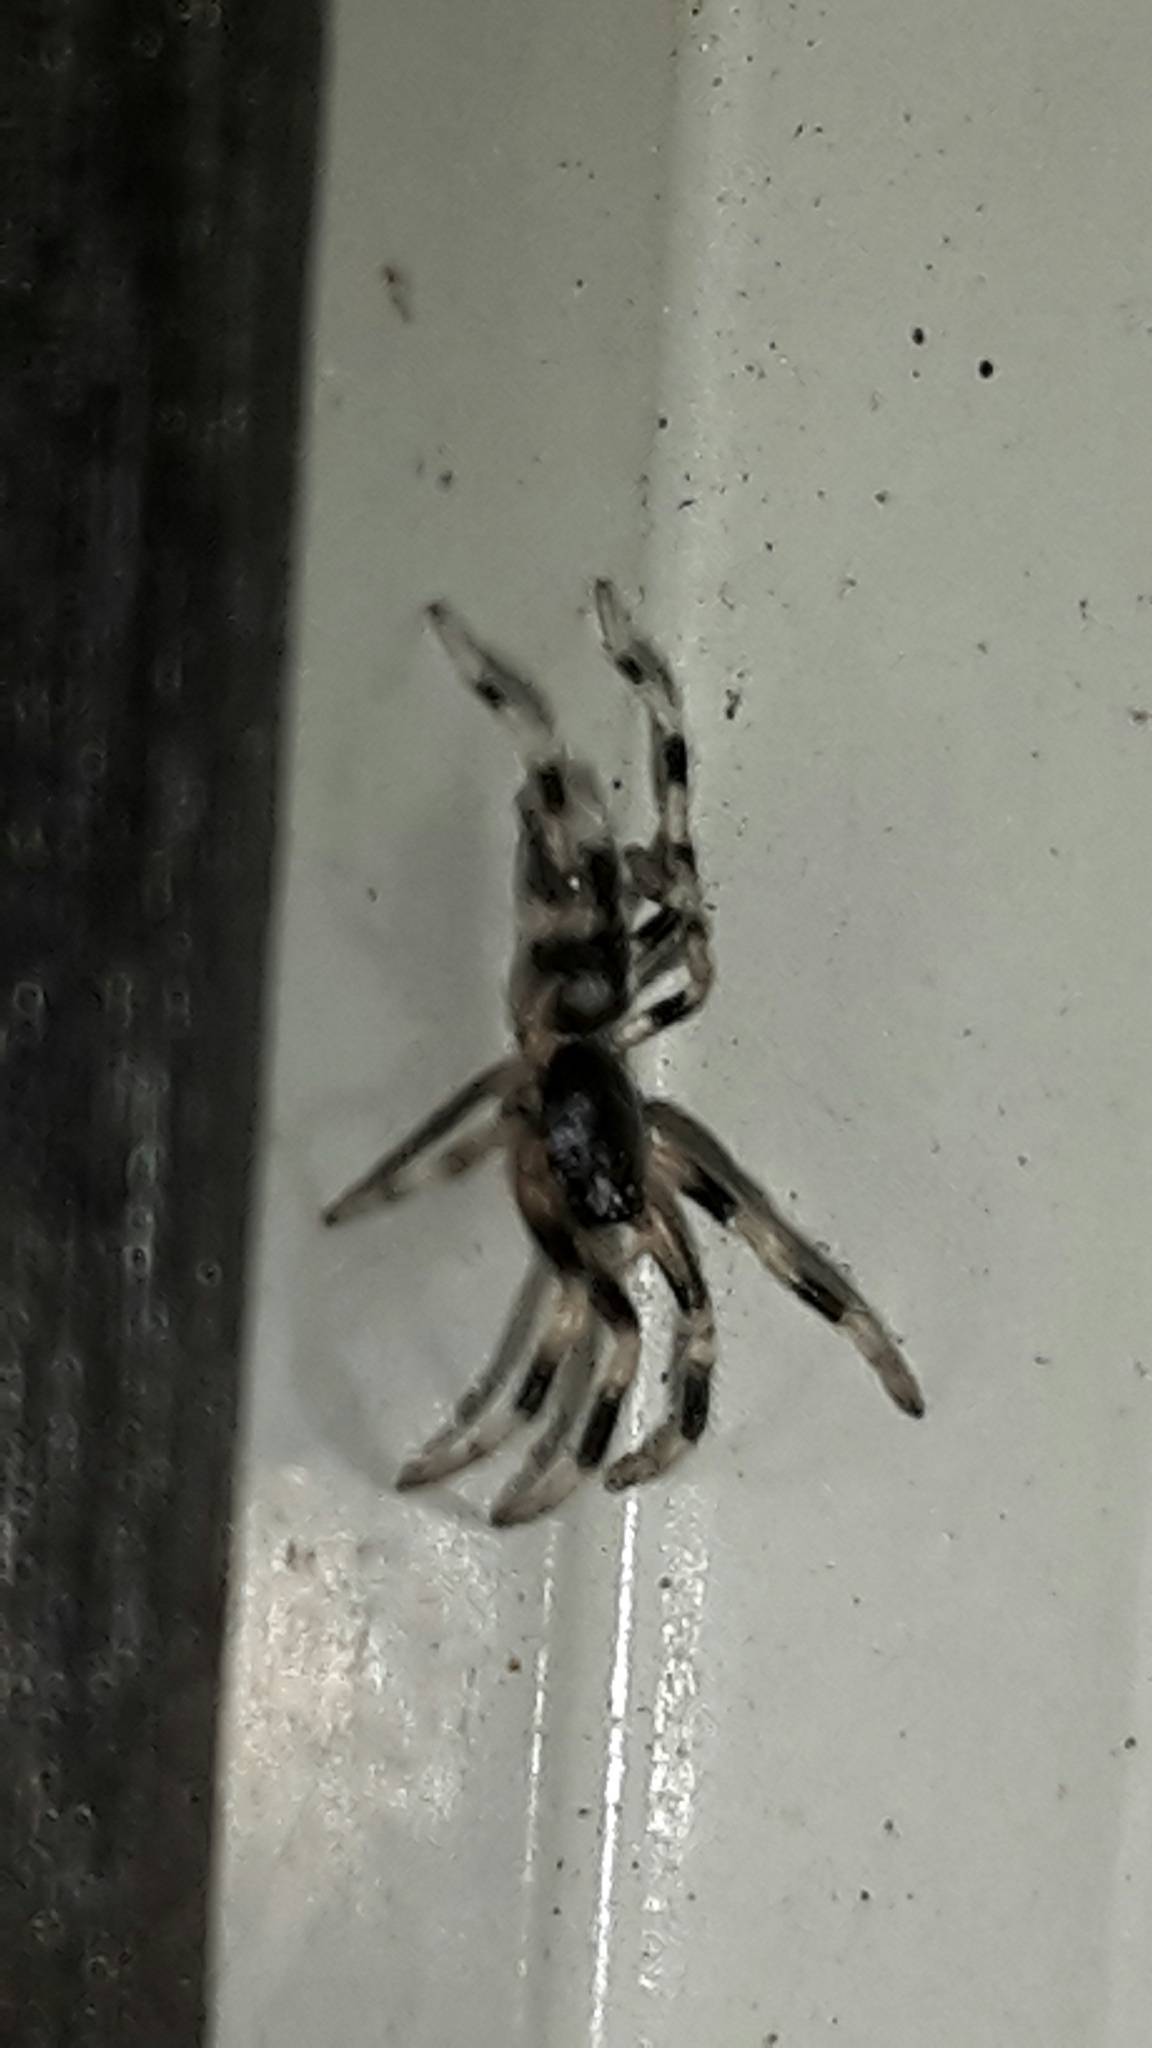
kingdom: Animalia
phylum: Arthropoda
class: Arachnida
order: Araneae
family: Lamponidae
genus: Lampona
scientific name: Lampona cylindrata
